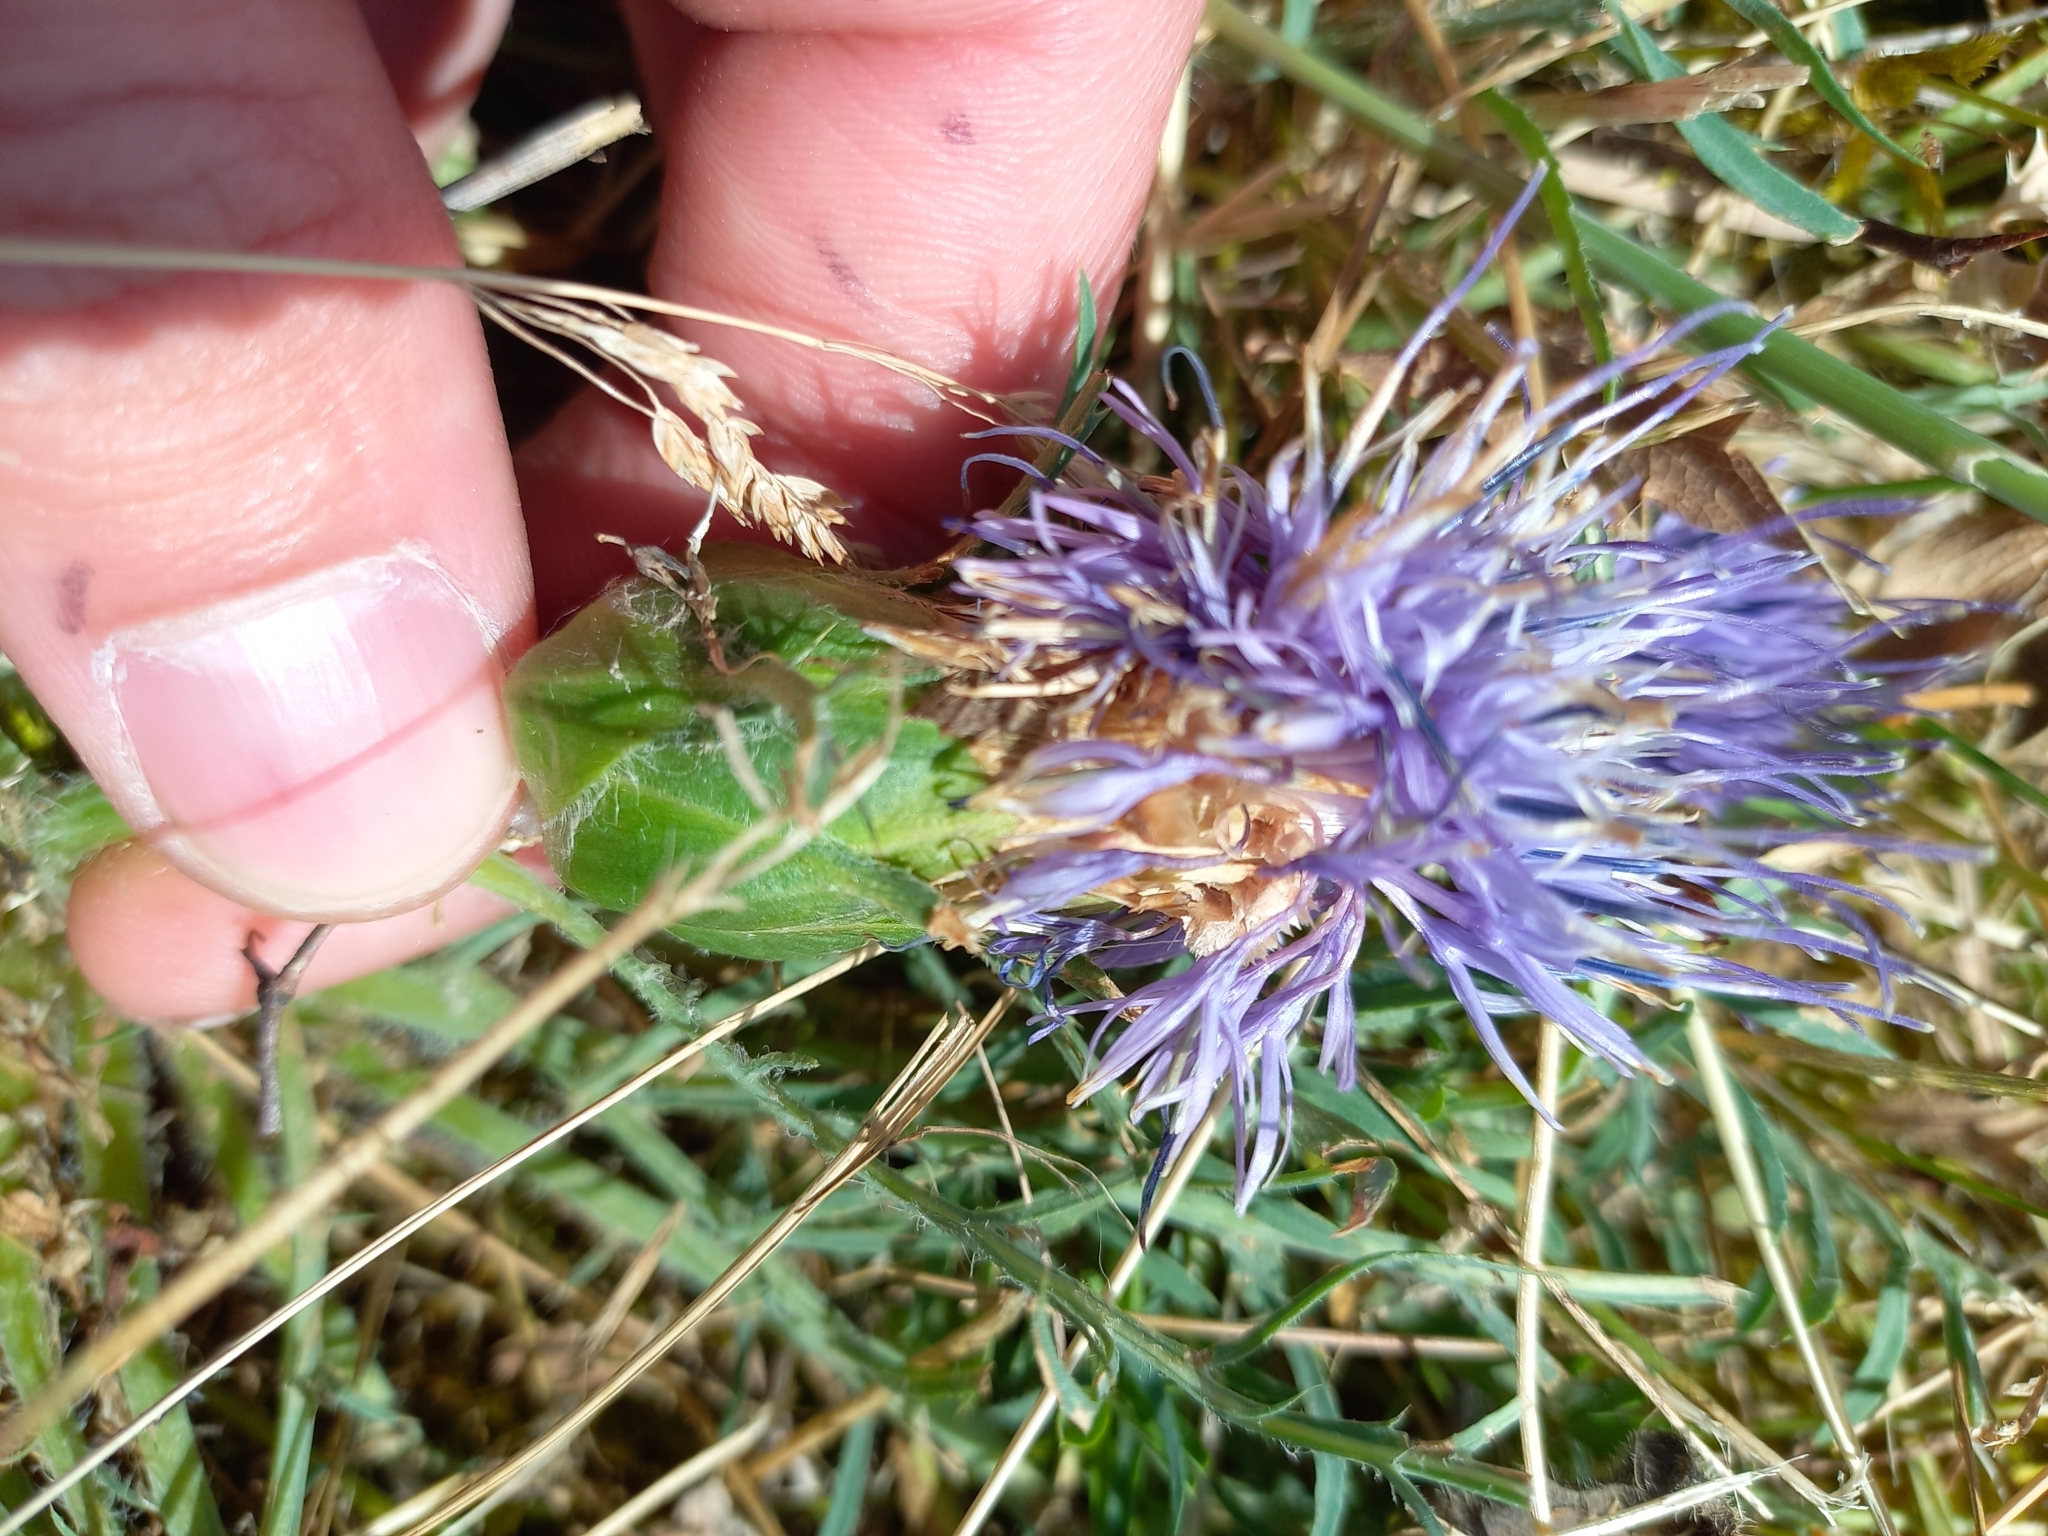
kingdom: Plantae
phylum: Tracheophyta
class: Magnoliopsida
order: Asterales
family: Asteraceae
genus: Carduncellus
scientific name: Carduncellus mitissimus
